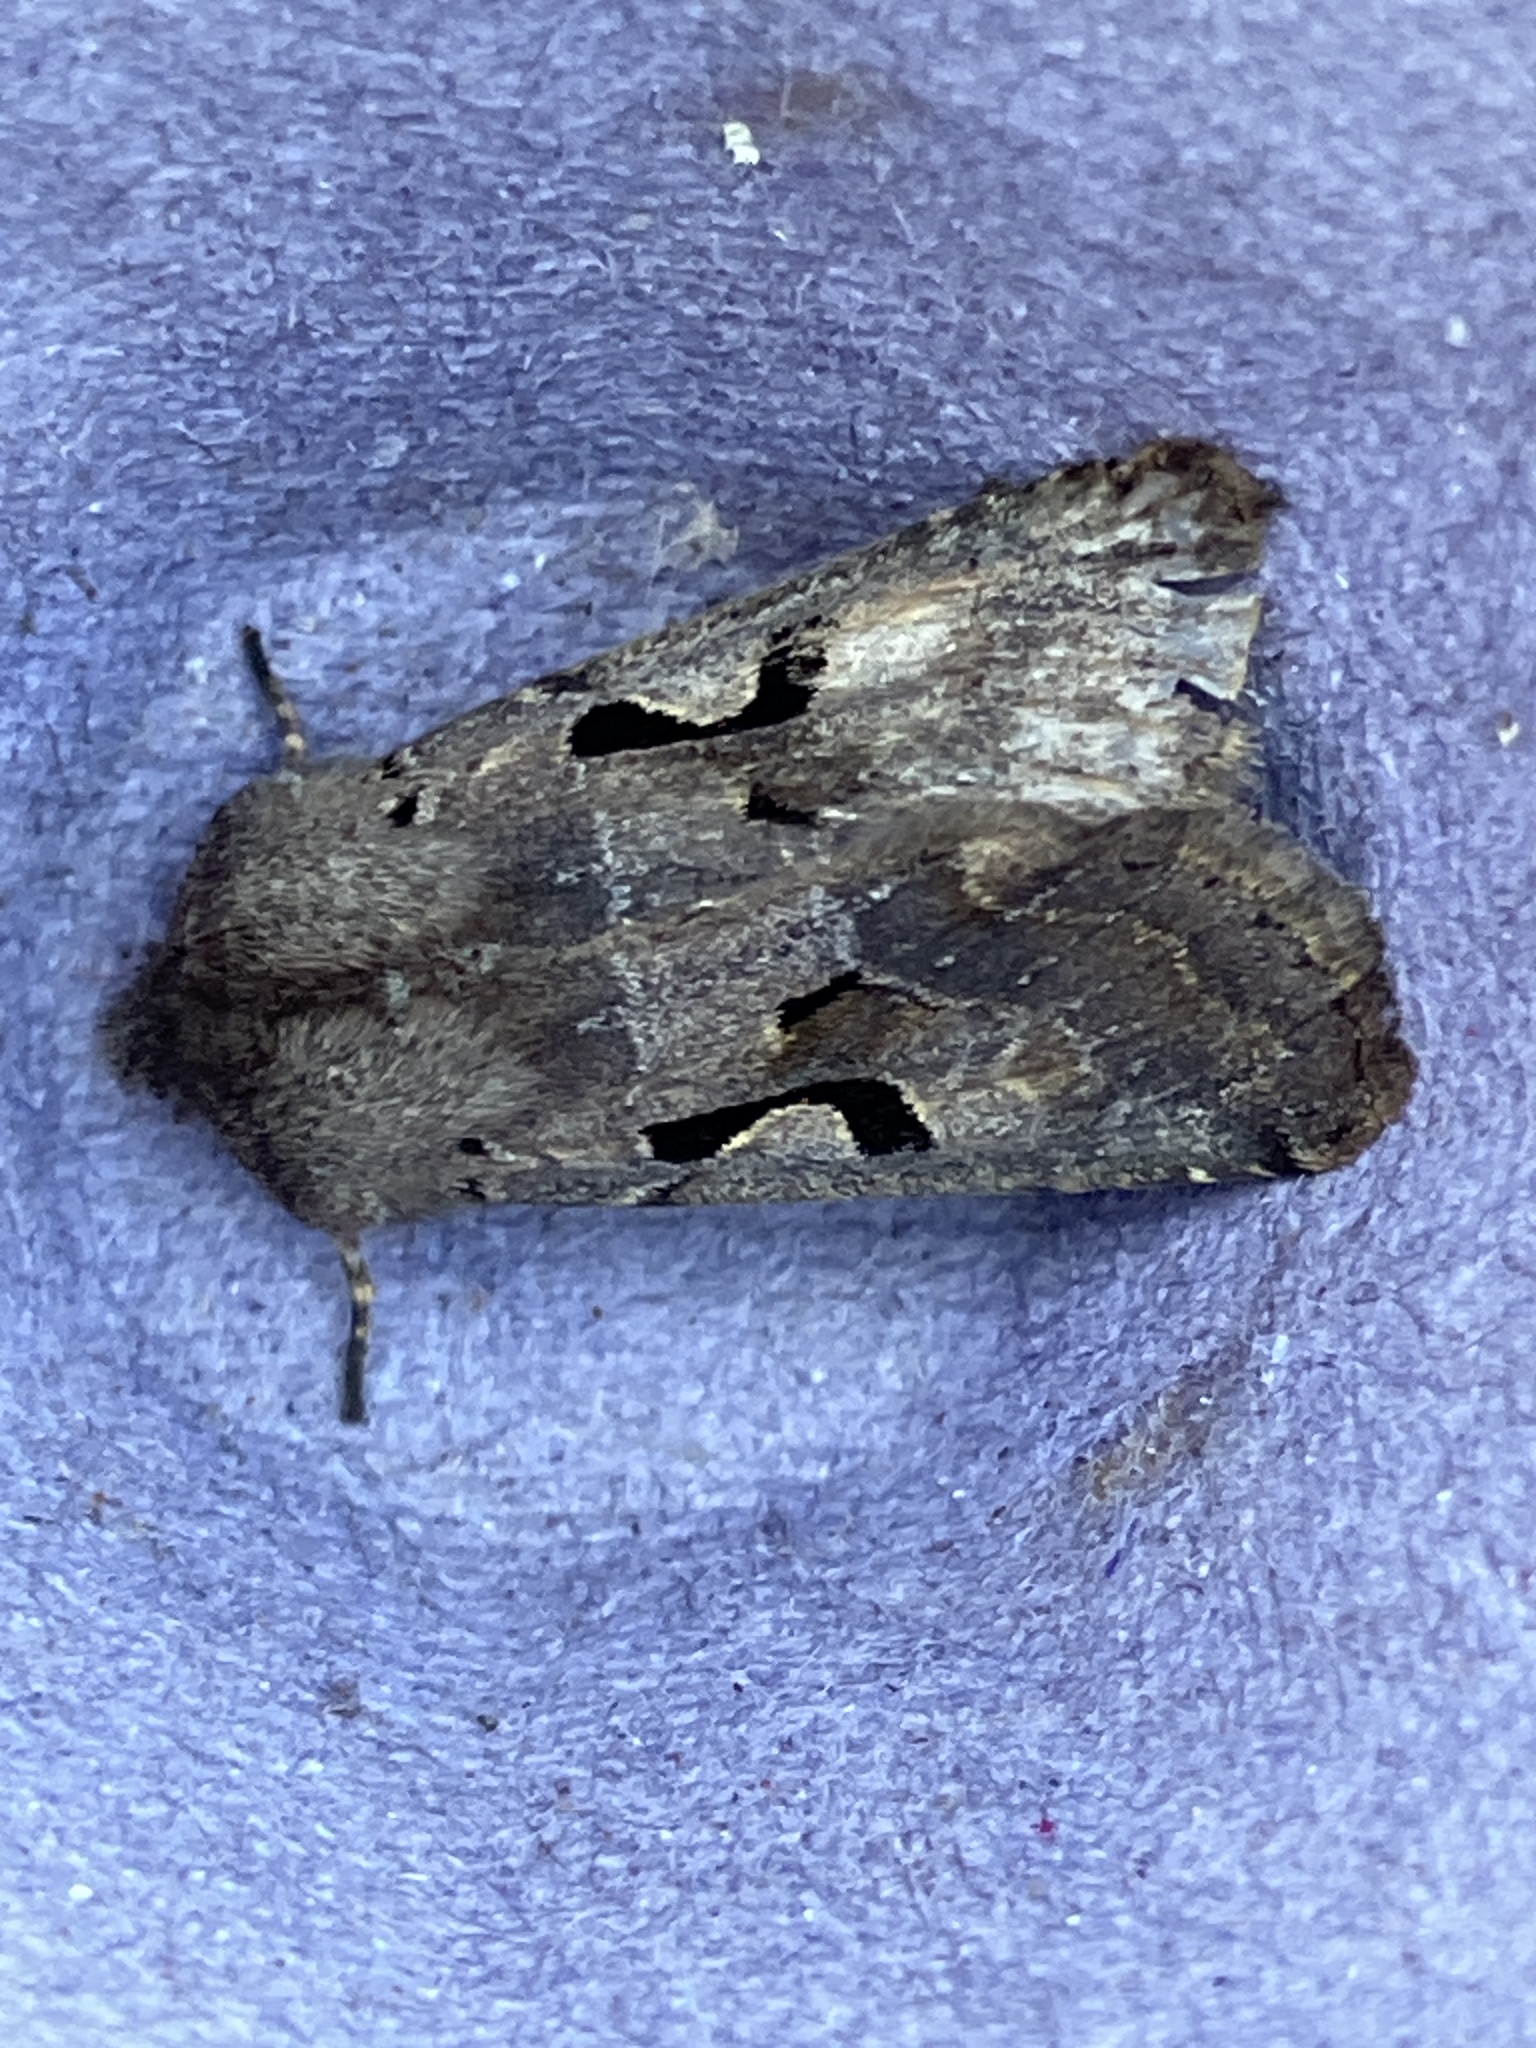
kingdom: Animalia
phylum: Arthropoda
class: Insecta
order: Lepidoptera
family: Noctuidae
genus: Orthosia
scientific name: Orthosia gothica
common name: Hebrew character
